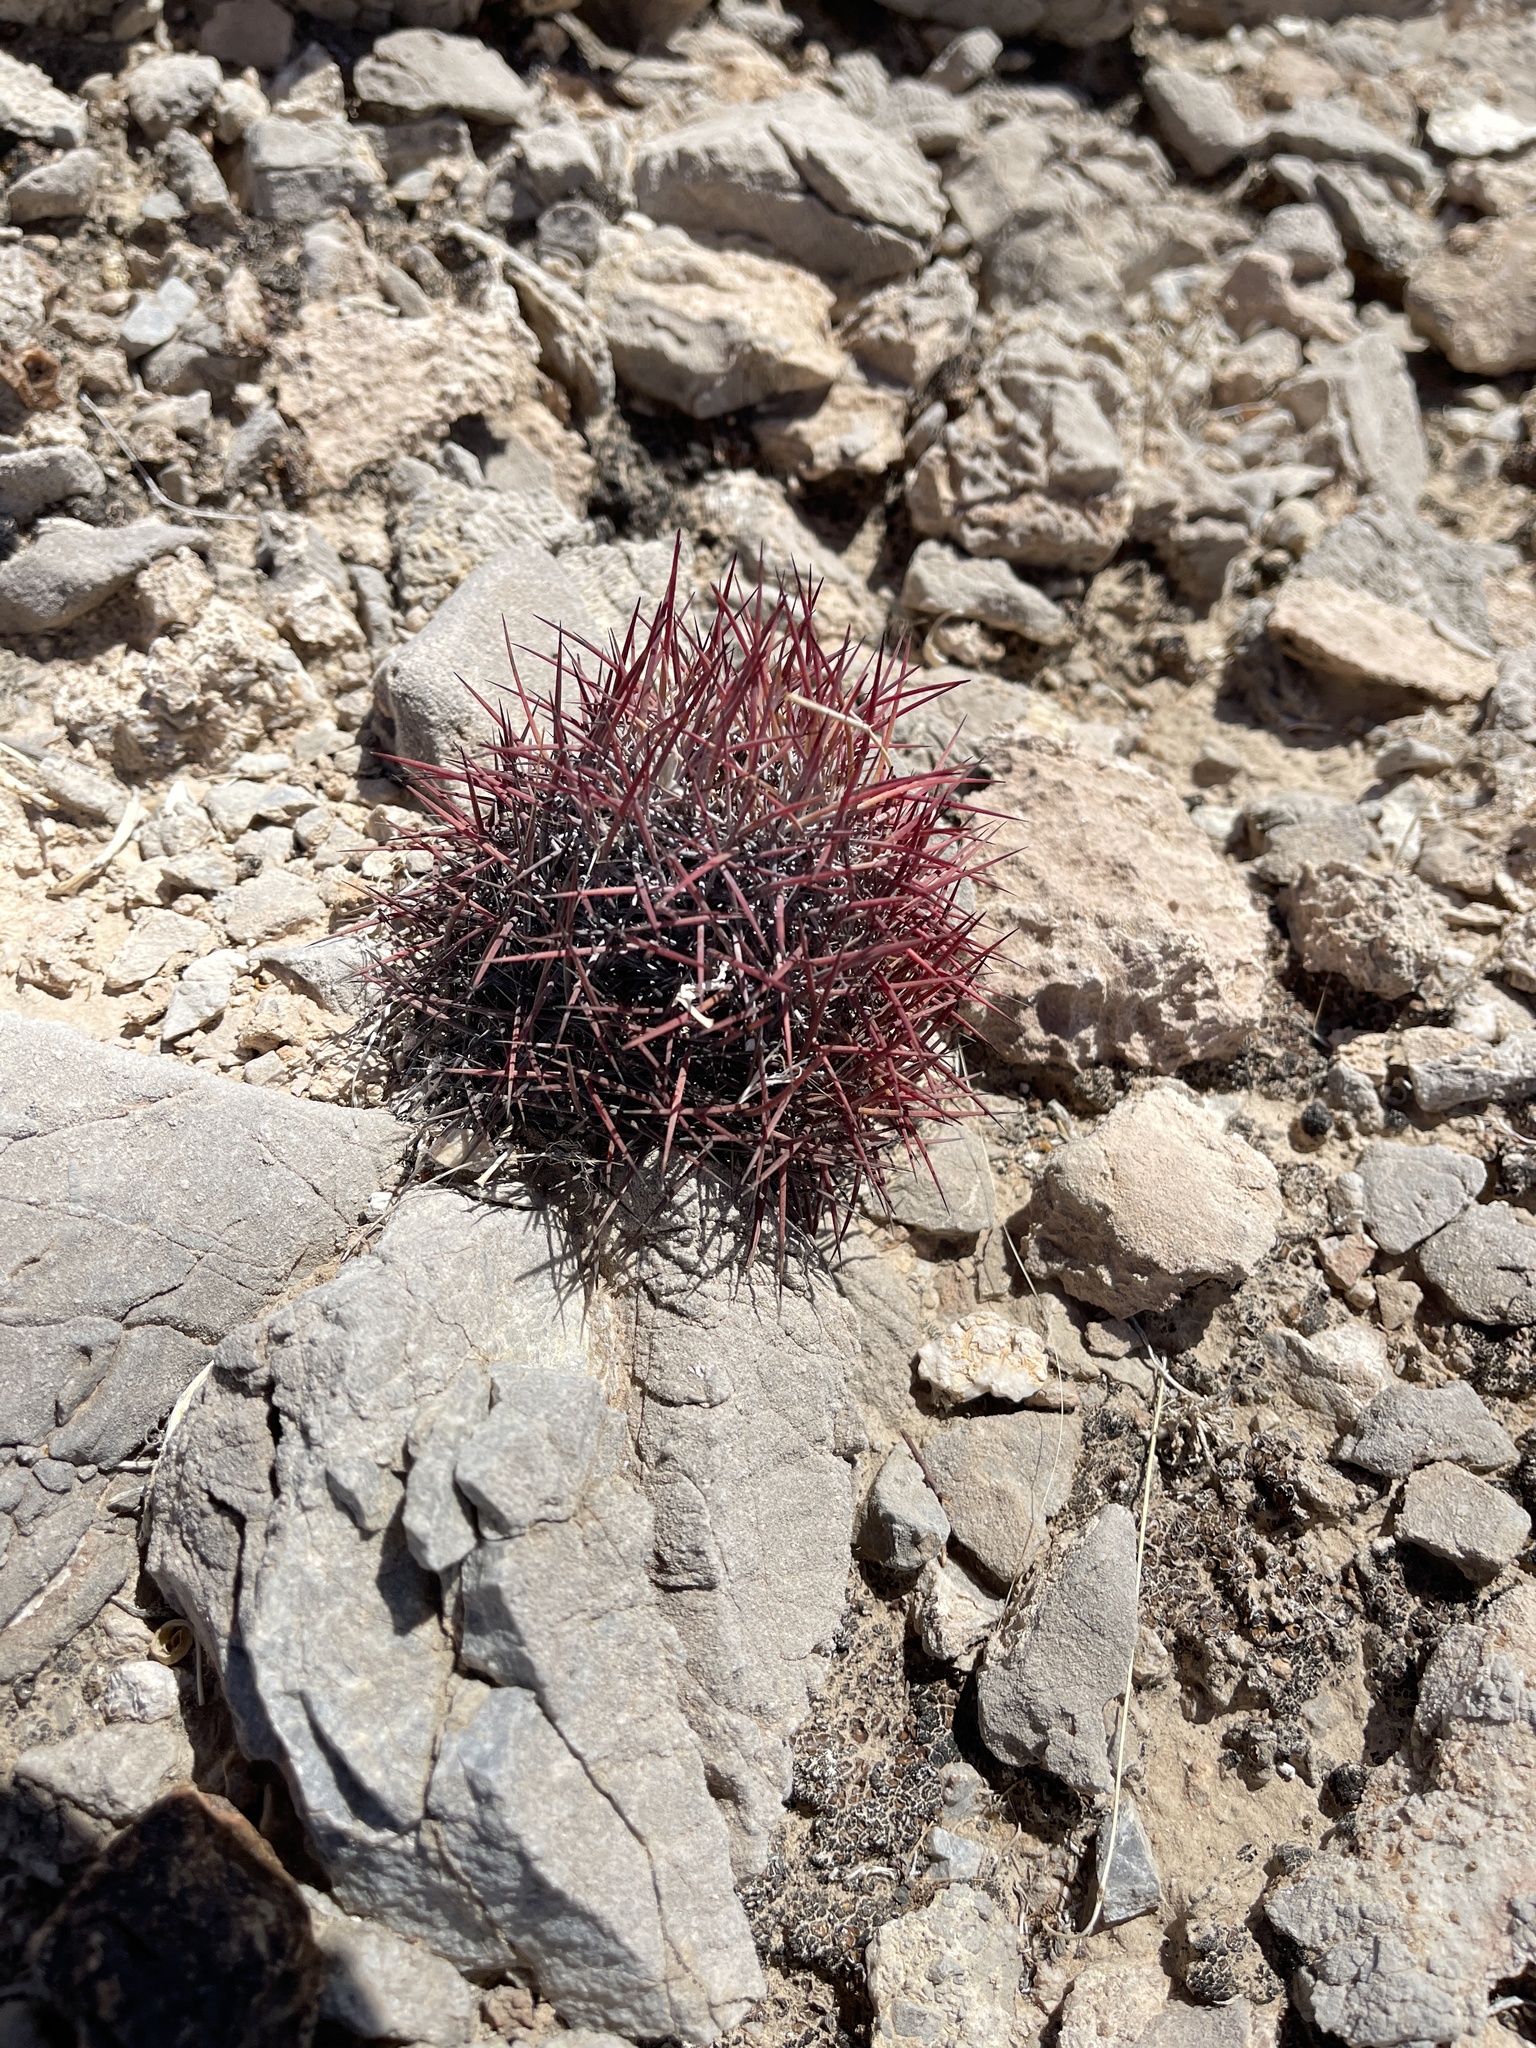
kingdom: Plantae
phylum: Tracheophyta
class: Magnoliopsida
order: Caryophyllales
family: Cactaceae
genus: Sclerocactus
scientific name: Sclerocactus johnsonii
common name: Eight-spine fishhook cactus
